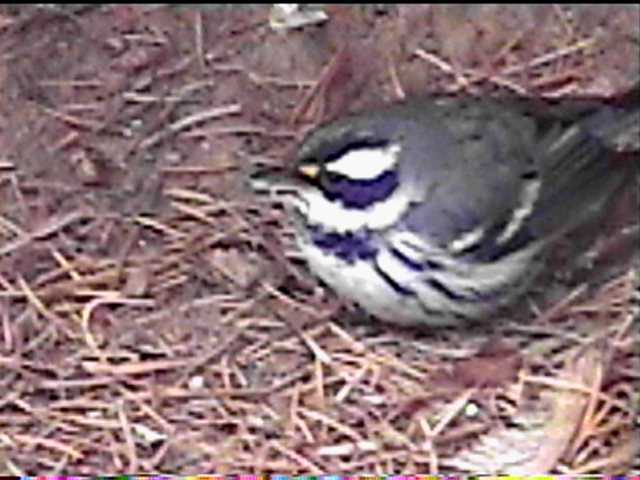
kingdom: Animalia
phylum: Chordata
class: Aves
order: Passeriformes
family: Parulidae
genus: Setophaga
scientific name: Setophaga nigrescens
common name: Black-throated gray warbler
